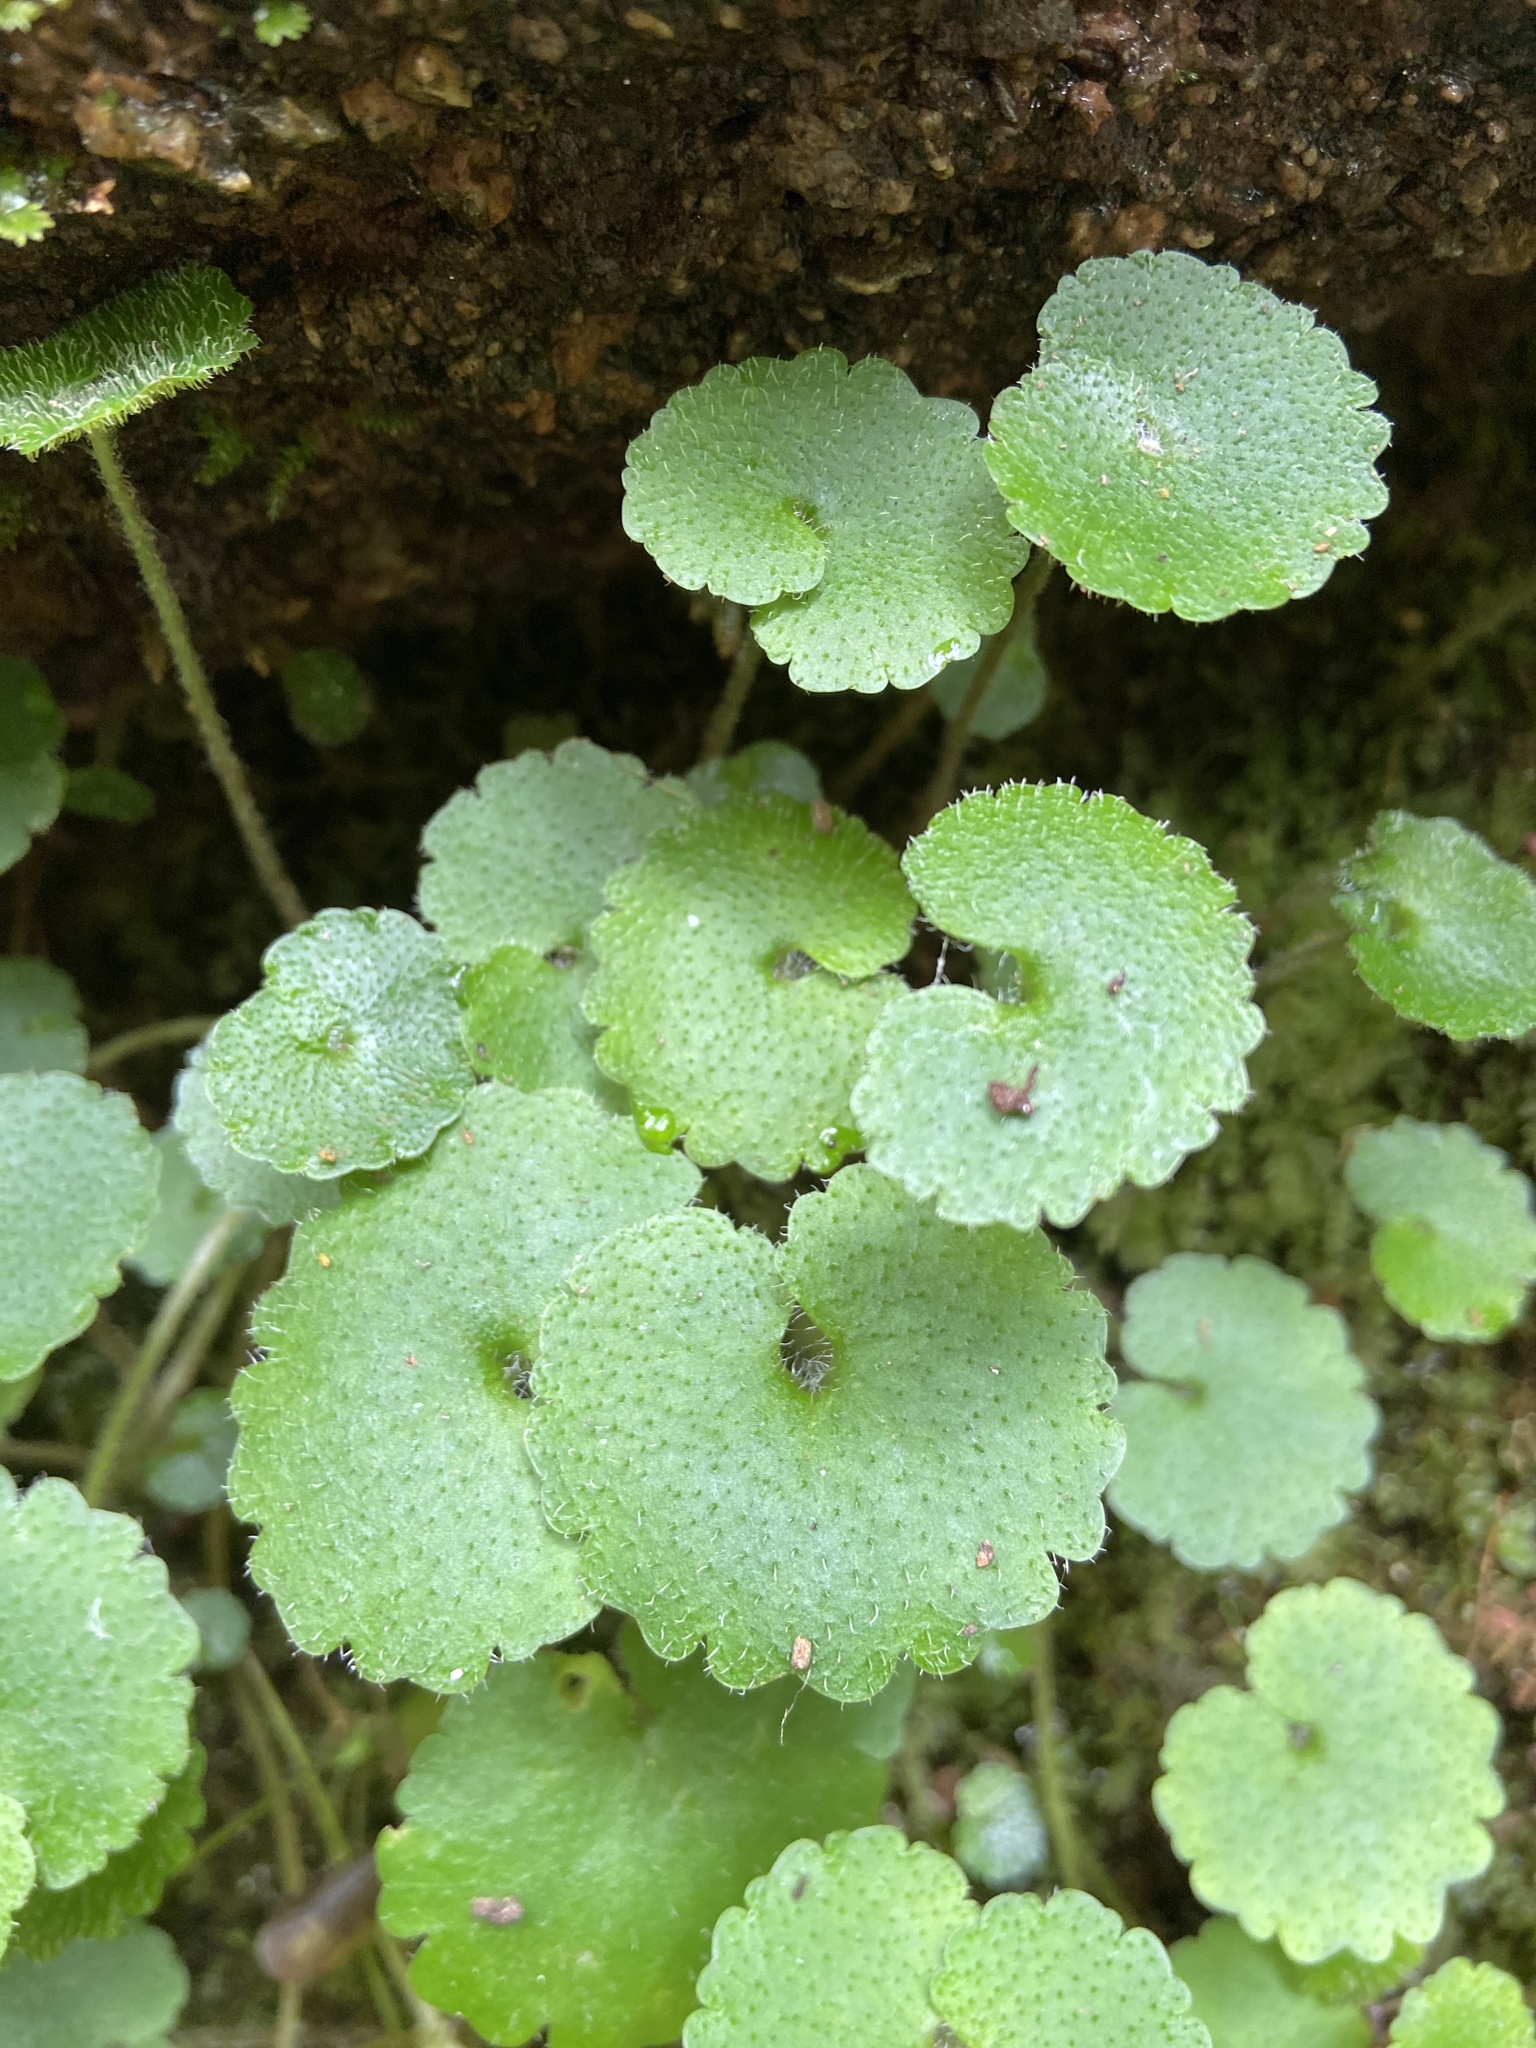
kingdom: Plantae
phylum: Tracheophyta
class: Magnoliopsida
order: Saxifragales
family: Saxifragaceae
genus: Chrysosplenium
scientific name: Chrysosplenium alternifolium
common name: Alternate-leaved golden-saxifrage
